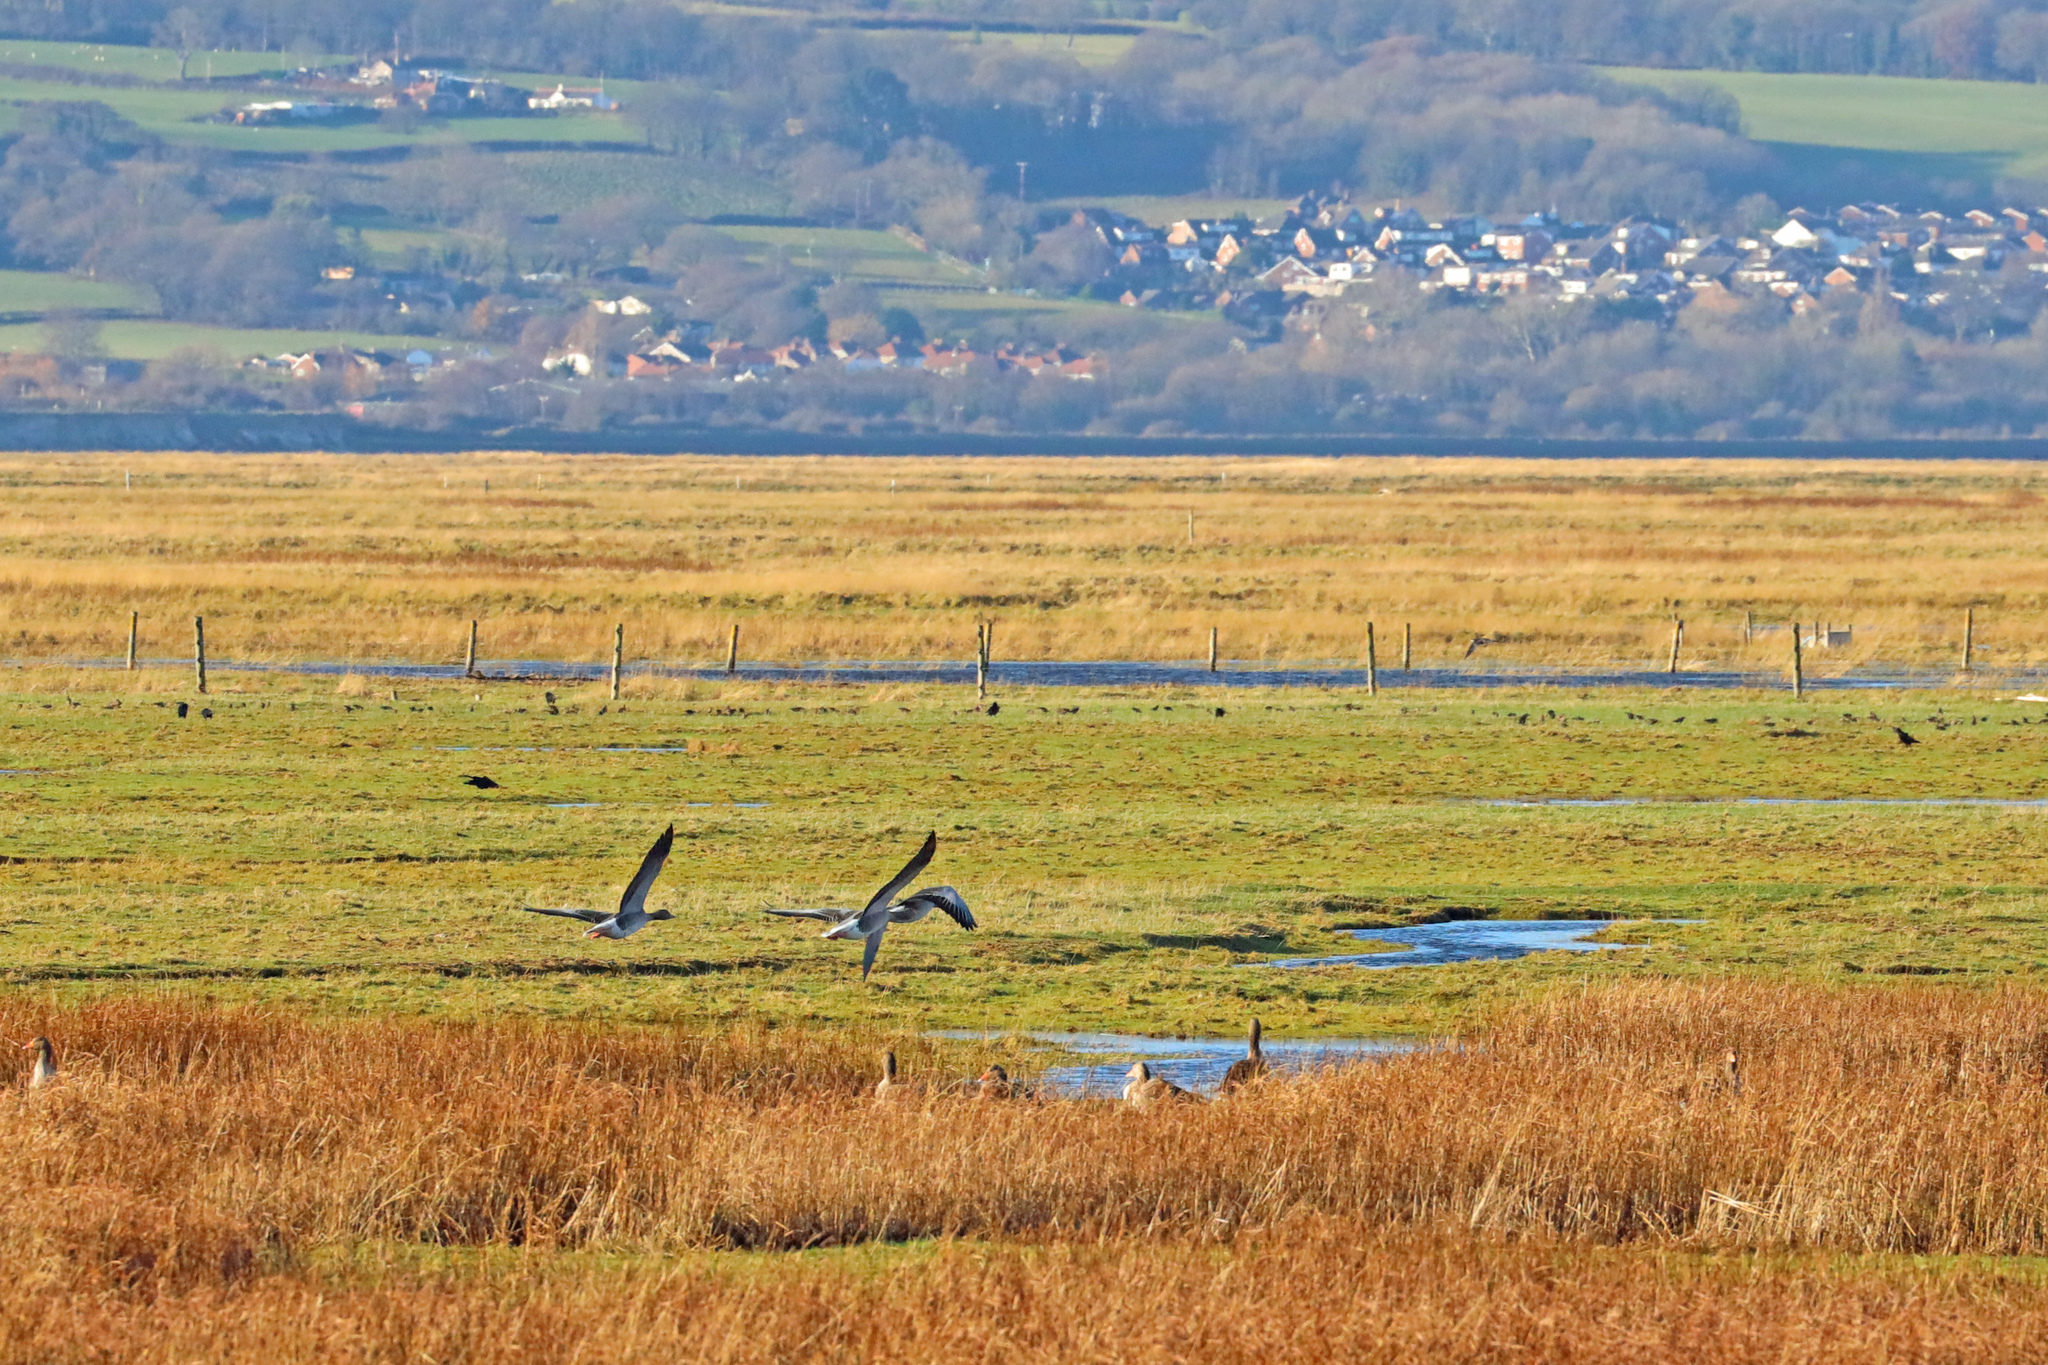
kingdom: Animalia
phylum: Chordata
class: Aves
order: Anseriformes
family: Anatidae
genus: Anser
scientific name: Anser brachyrhynchus
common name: Pink-footed goose
